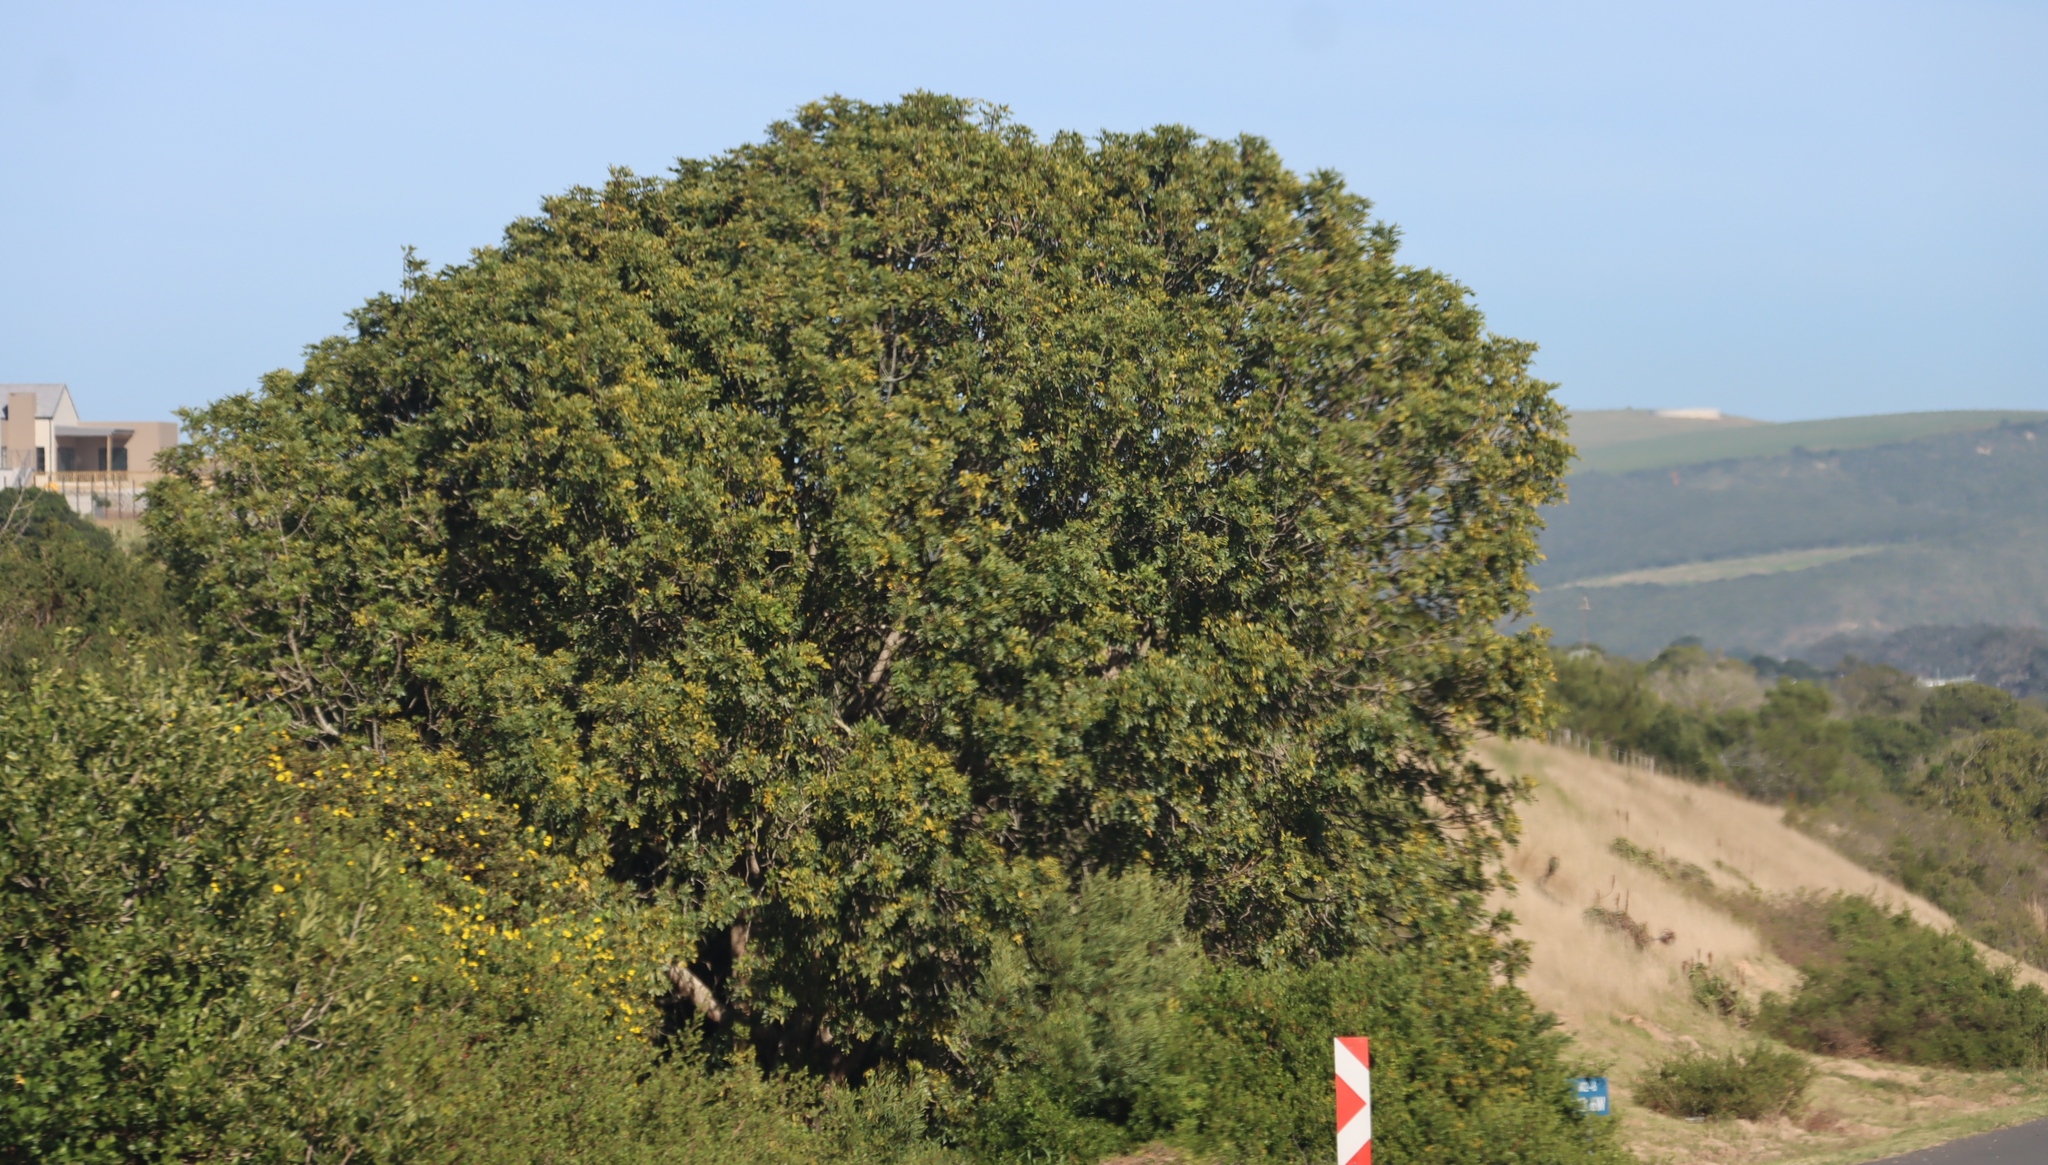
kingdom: Plantae
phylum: Tracheophyta
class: Magnoliopsida
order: Ericales
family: Sapotaceae
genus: Sideroxylon
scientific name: Sideroxylon inerme
